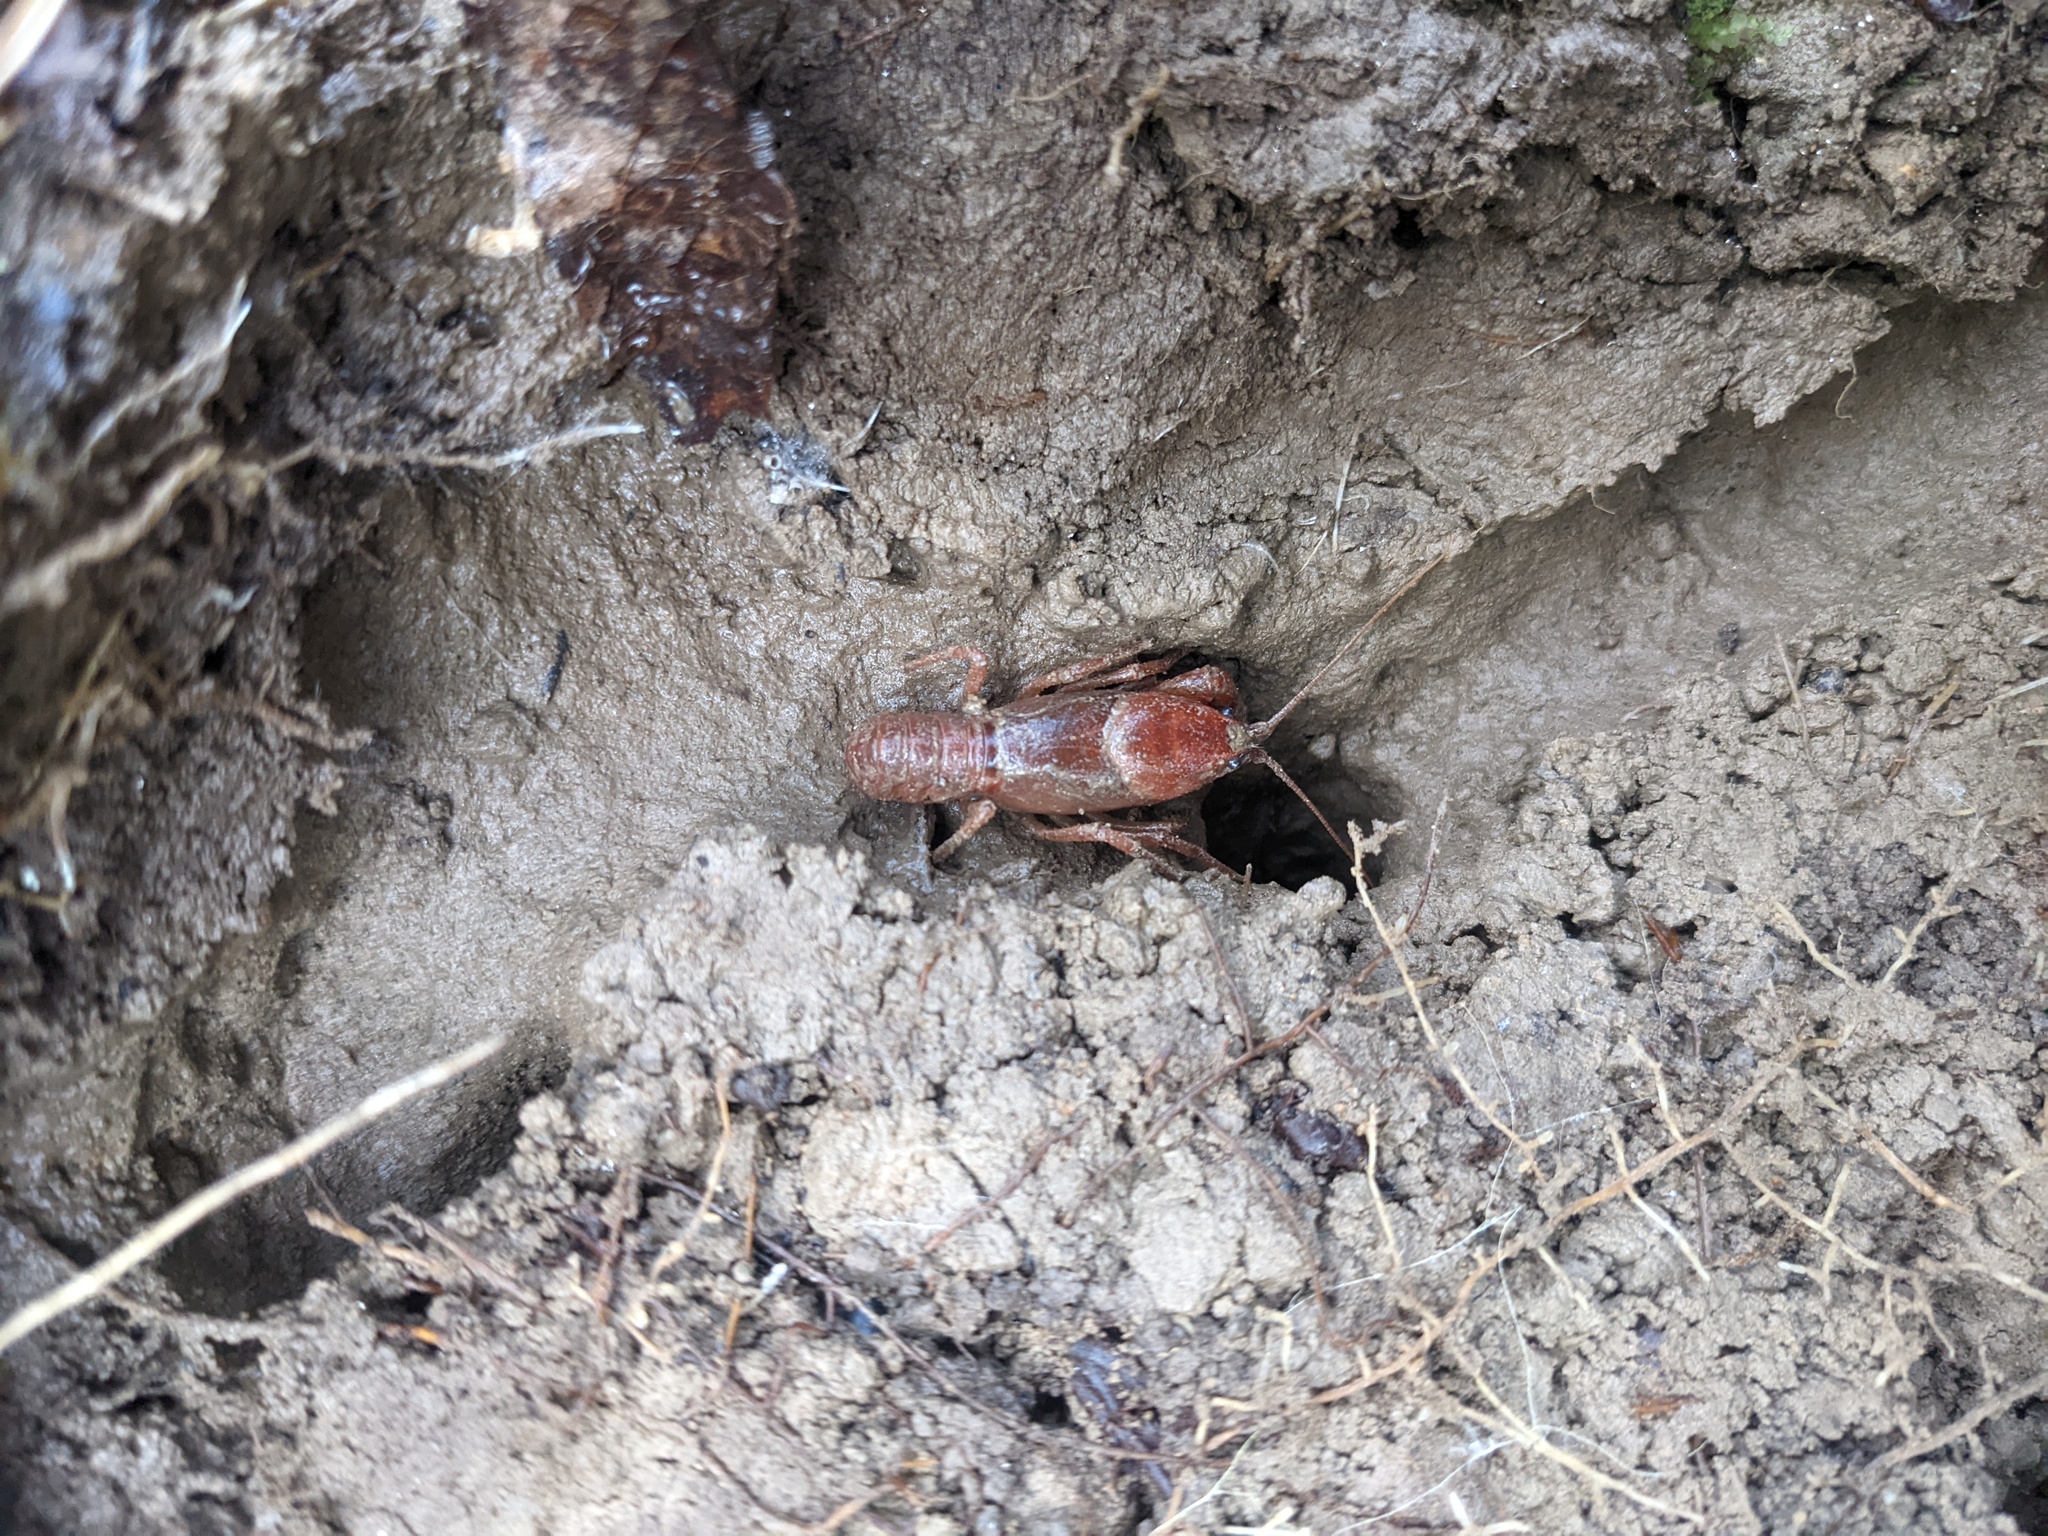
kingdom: Animalia
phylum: Arthropoda
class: Malacostraca
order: Decapoda
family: Cambaridae
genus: Cambarus
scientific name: Cambarus dubius
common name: Upland burrowing crayfish
